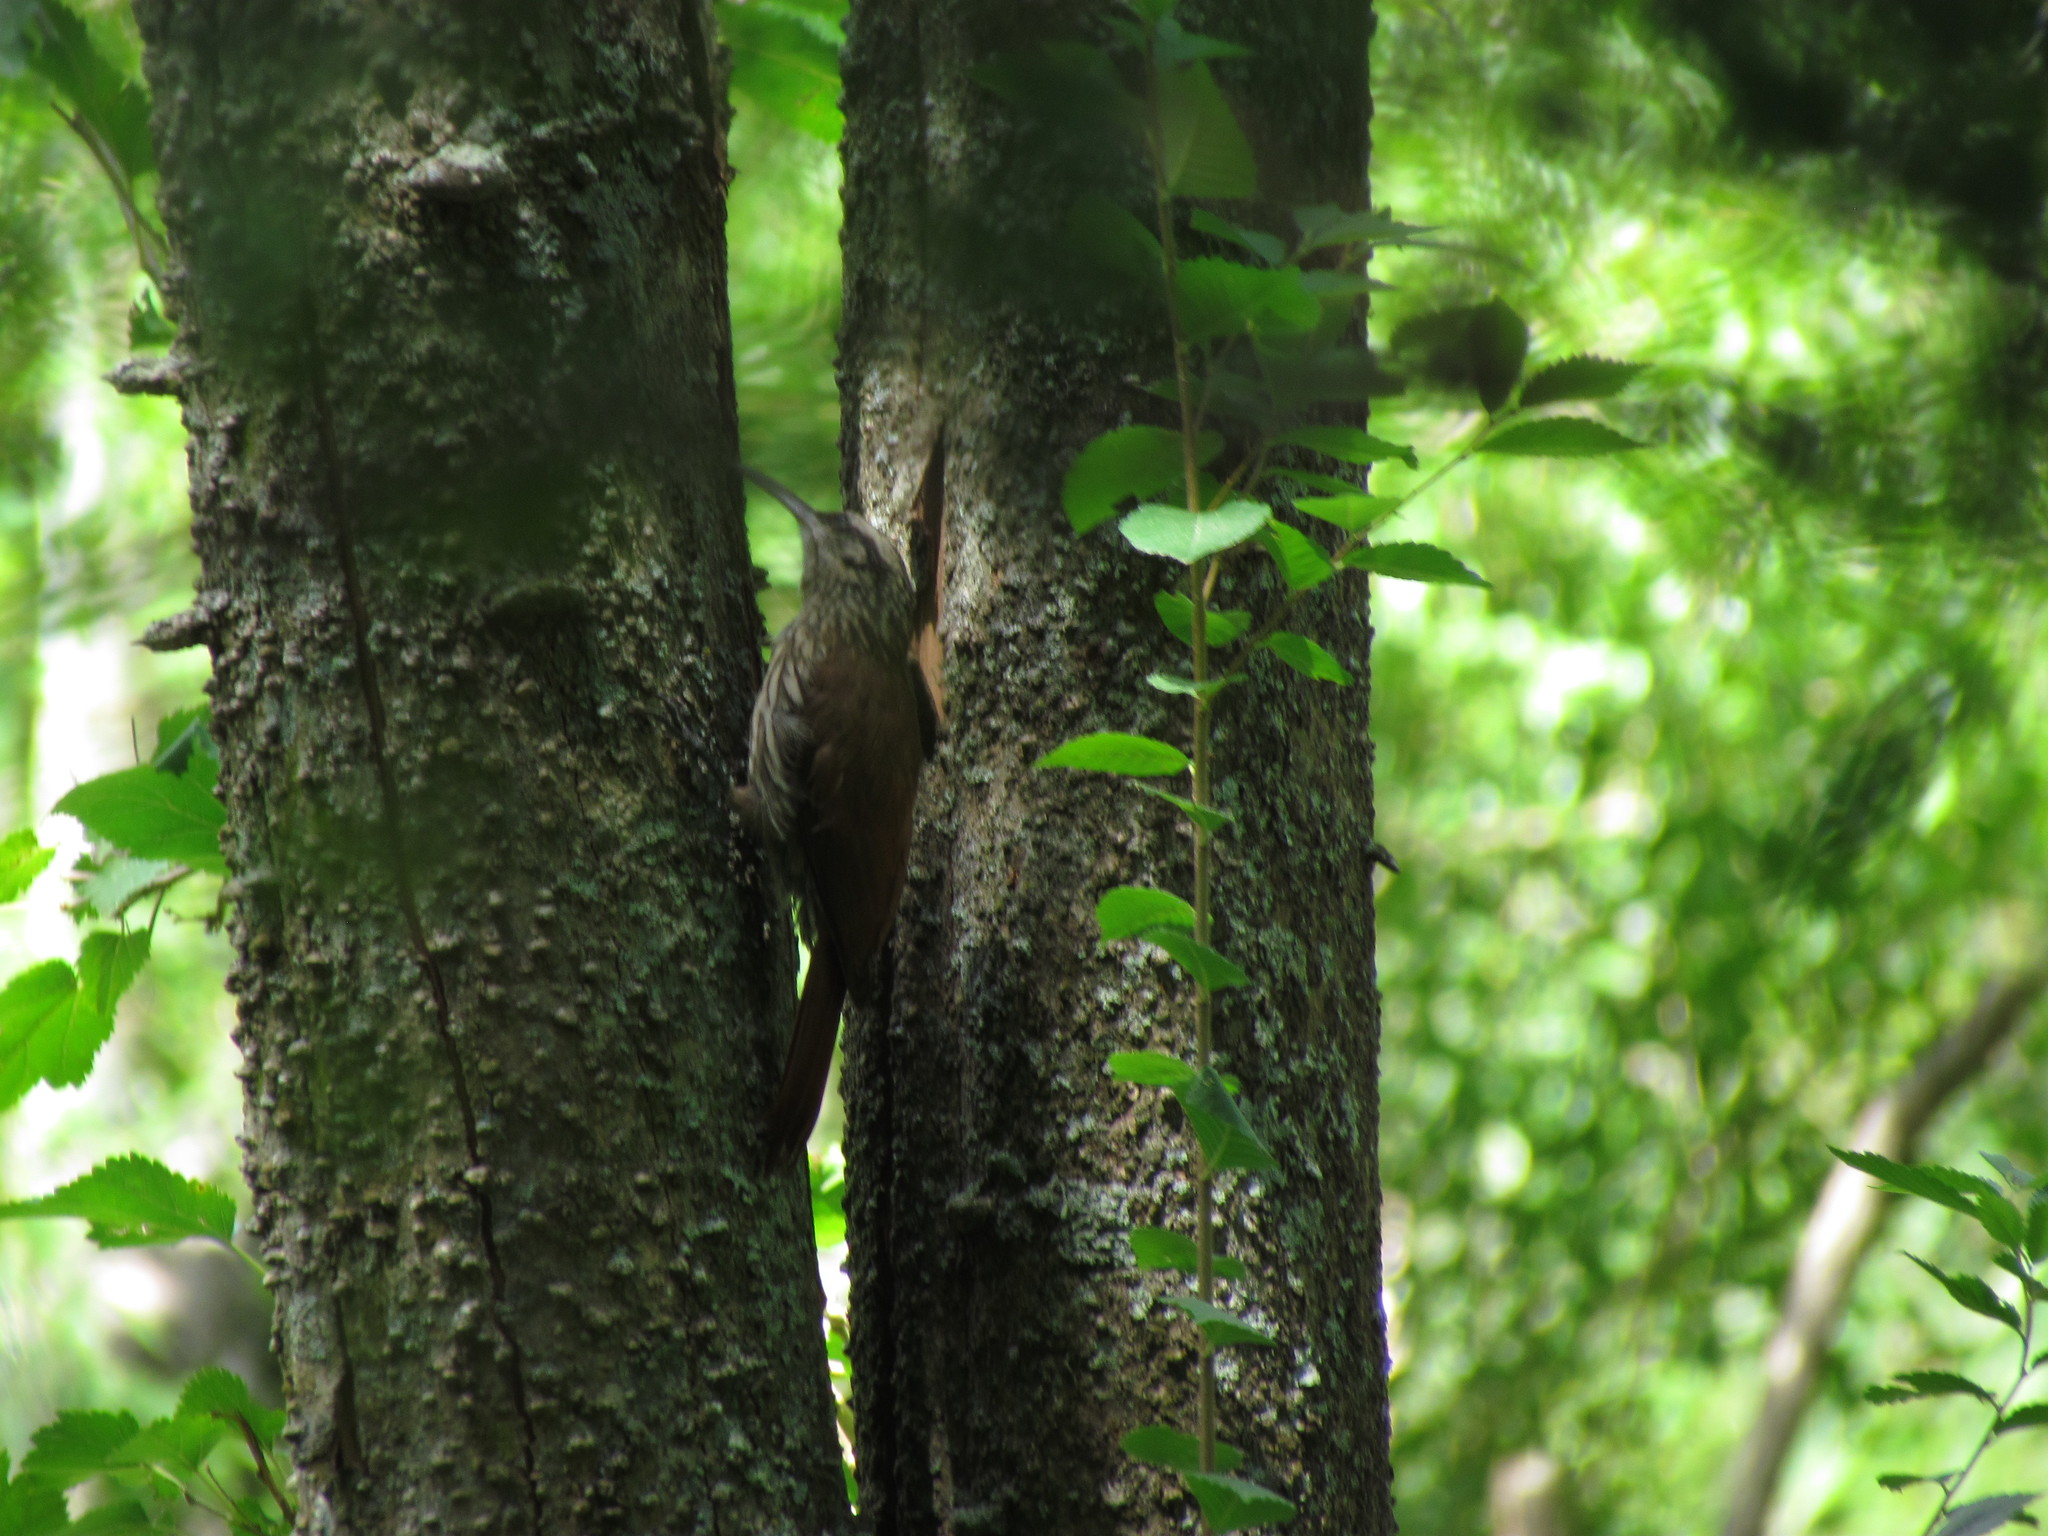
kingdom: Animalia
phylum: Chordata
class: Aves
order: Passeriformes
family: Furnariidae
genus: Lepidocolaptes
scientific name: Lepidocolaptes angustirostris
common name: Narrow-billed woodcreeper
